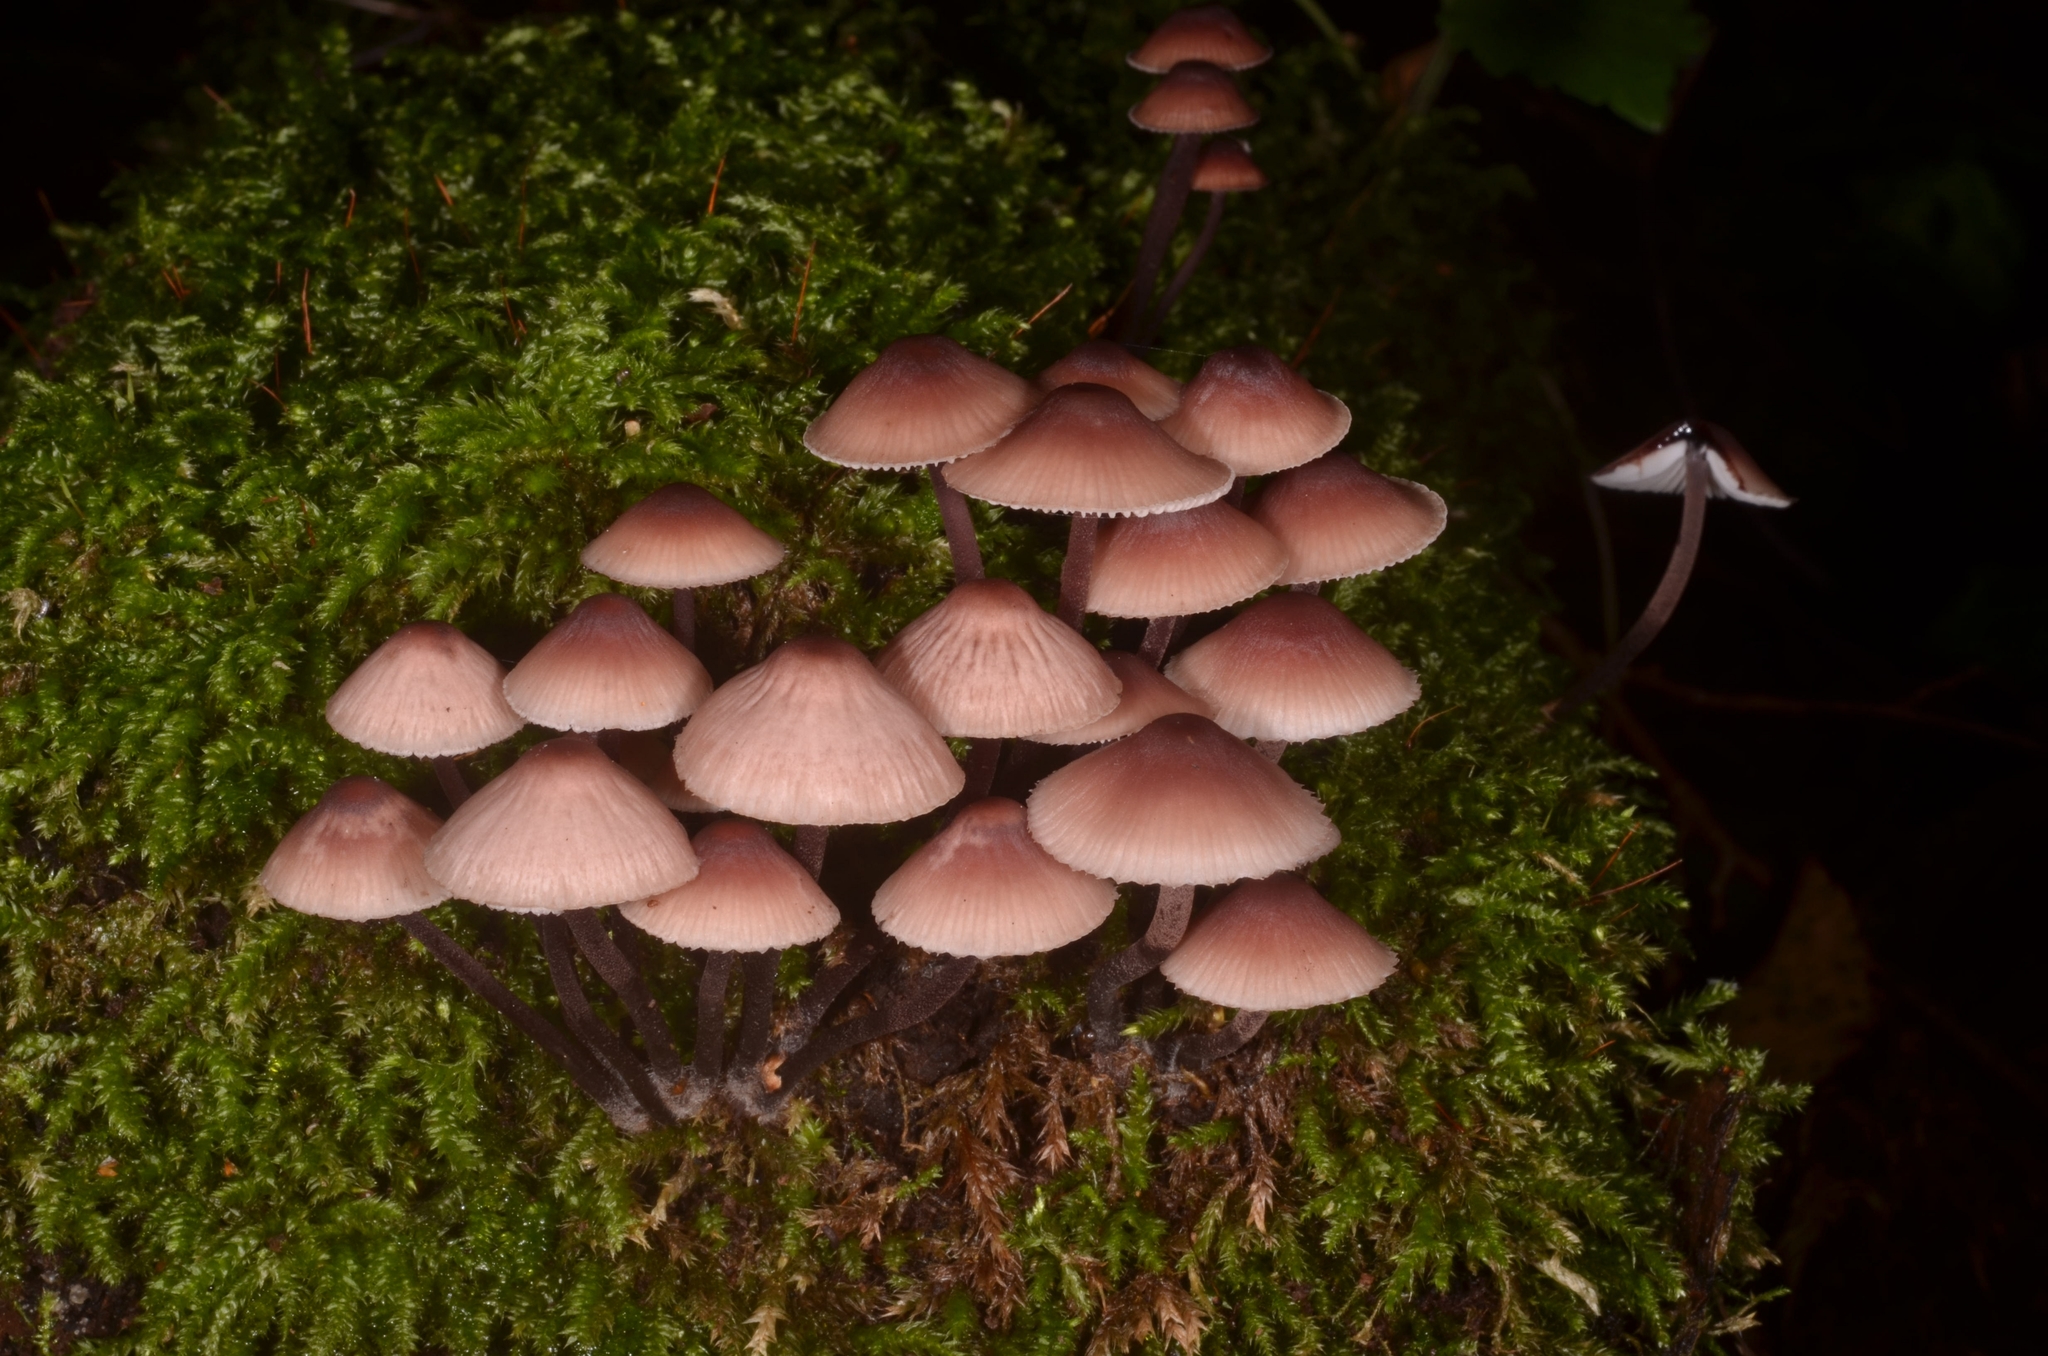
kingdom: Fungi
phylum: Basidiomycota
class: Agaricomycetes
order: Agaricales
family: Mycenaceae
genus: Mycena
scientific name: Mycena haematopus
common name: Burgundydrop bonnet
